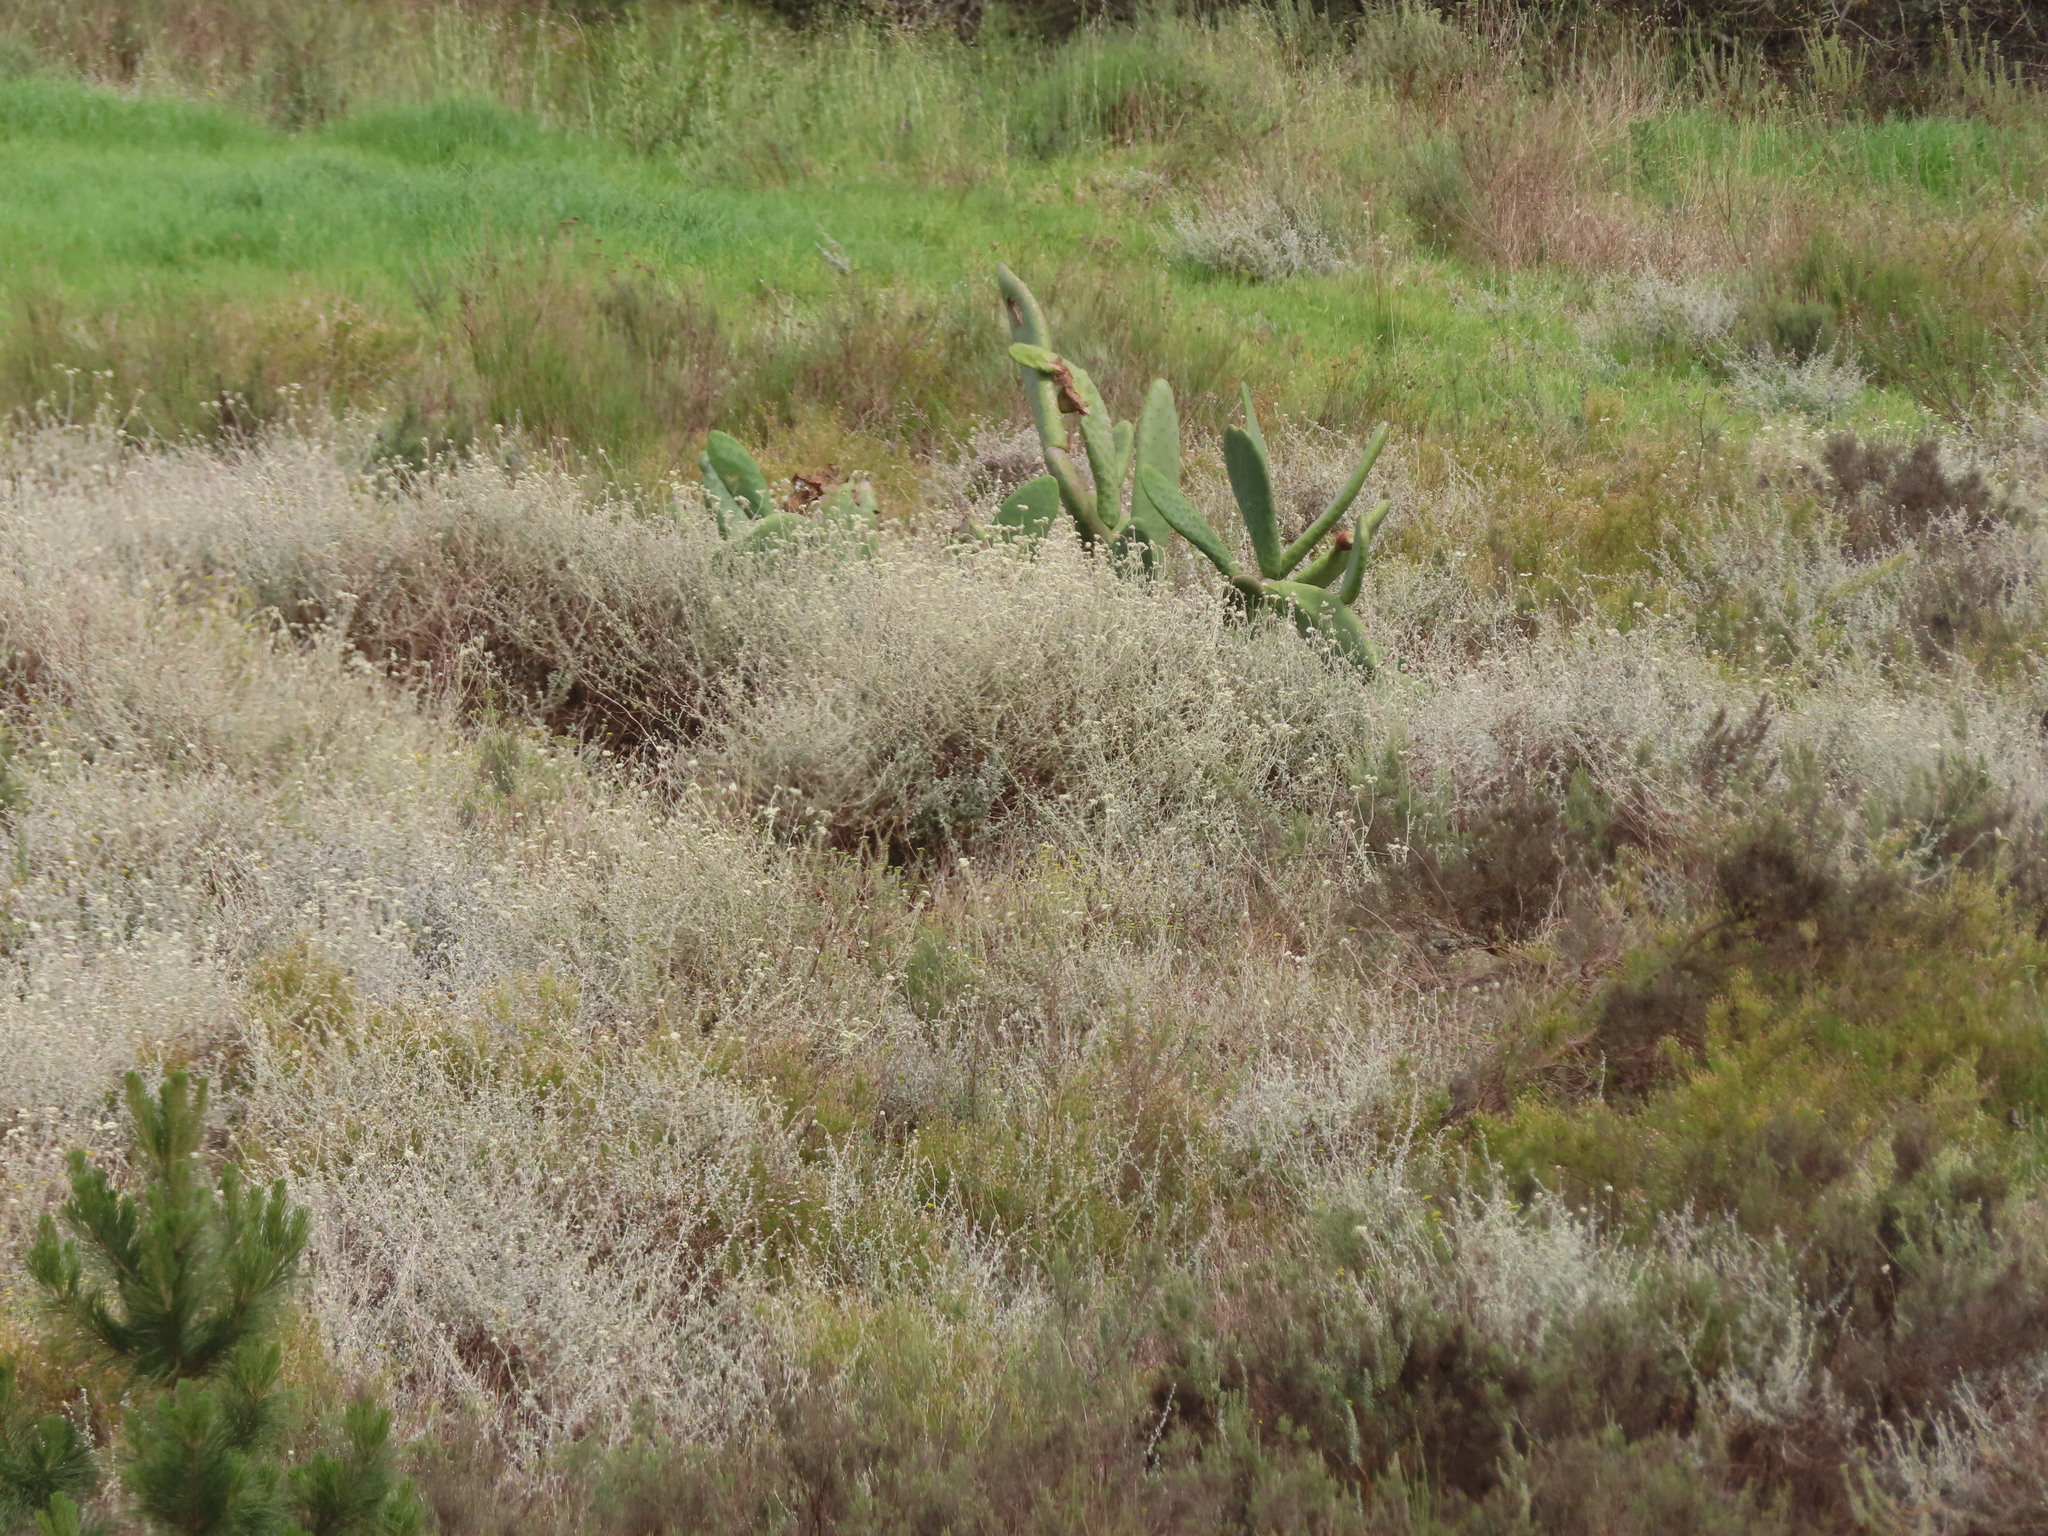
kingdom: Plantae
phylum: Tracheophyta
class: Magnoliopsida
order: Caryophyllales
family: Cactaceae
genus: Opuntia
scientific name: Opuntia ficus-indica
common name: Barbary fig
